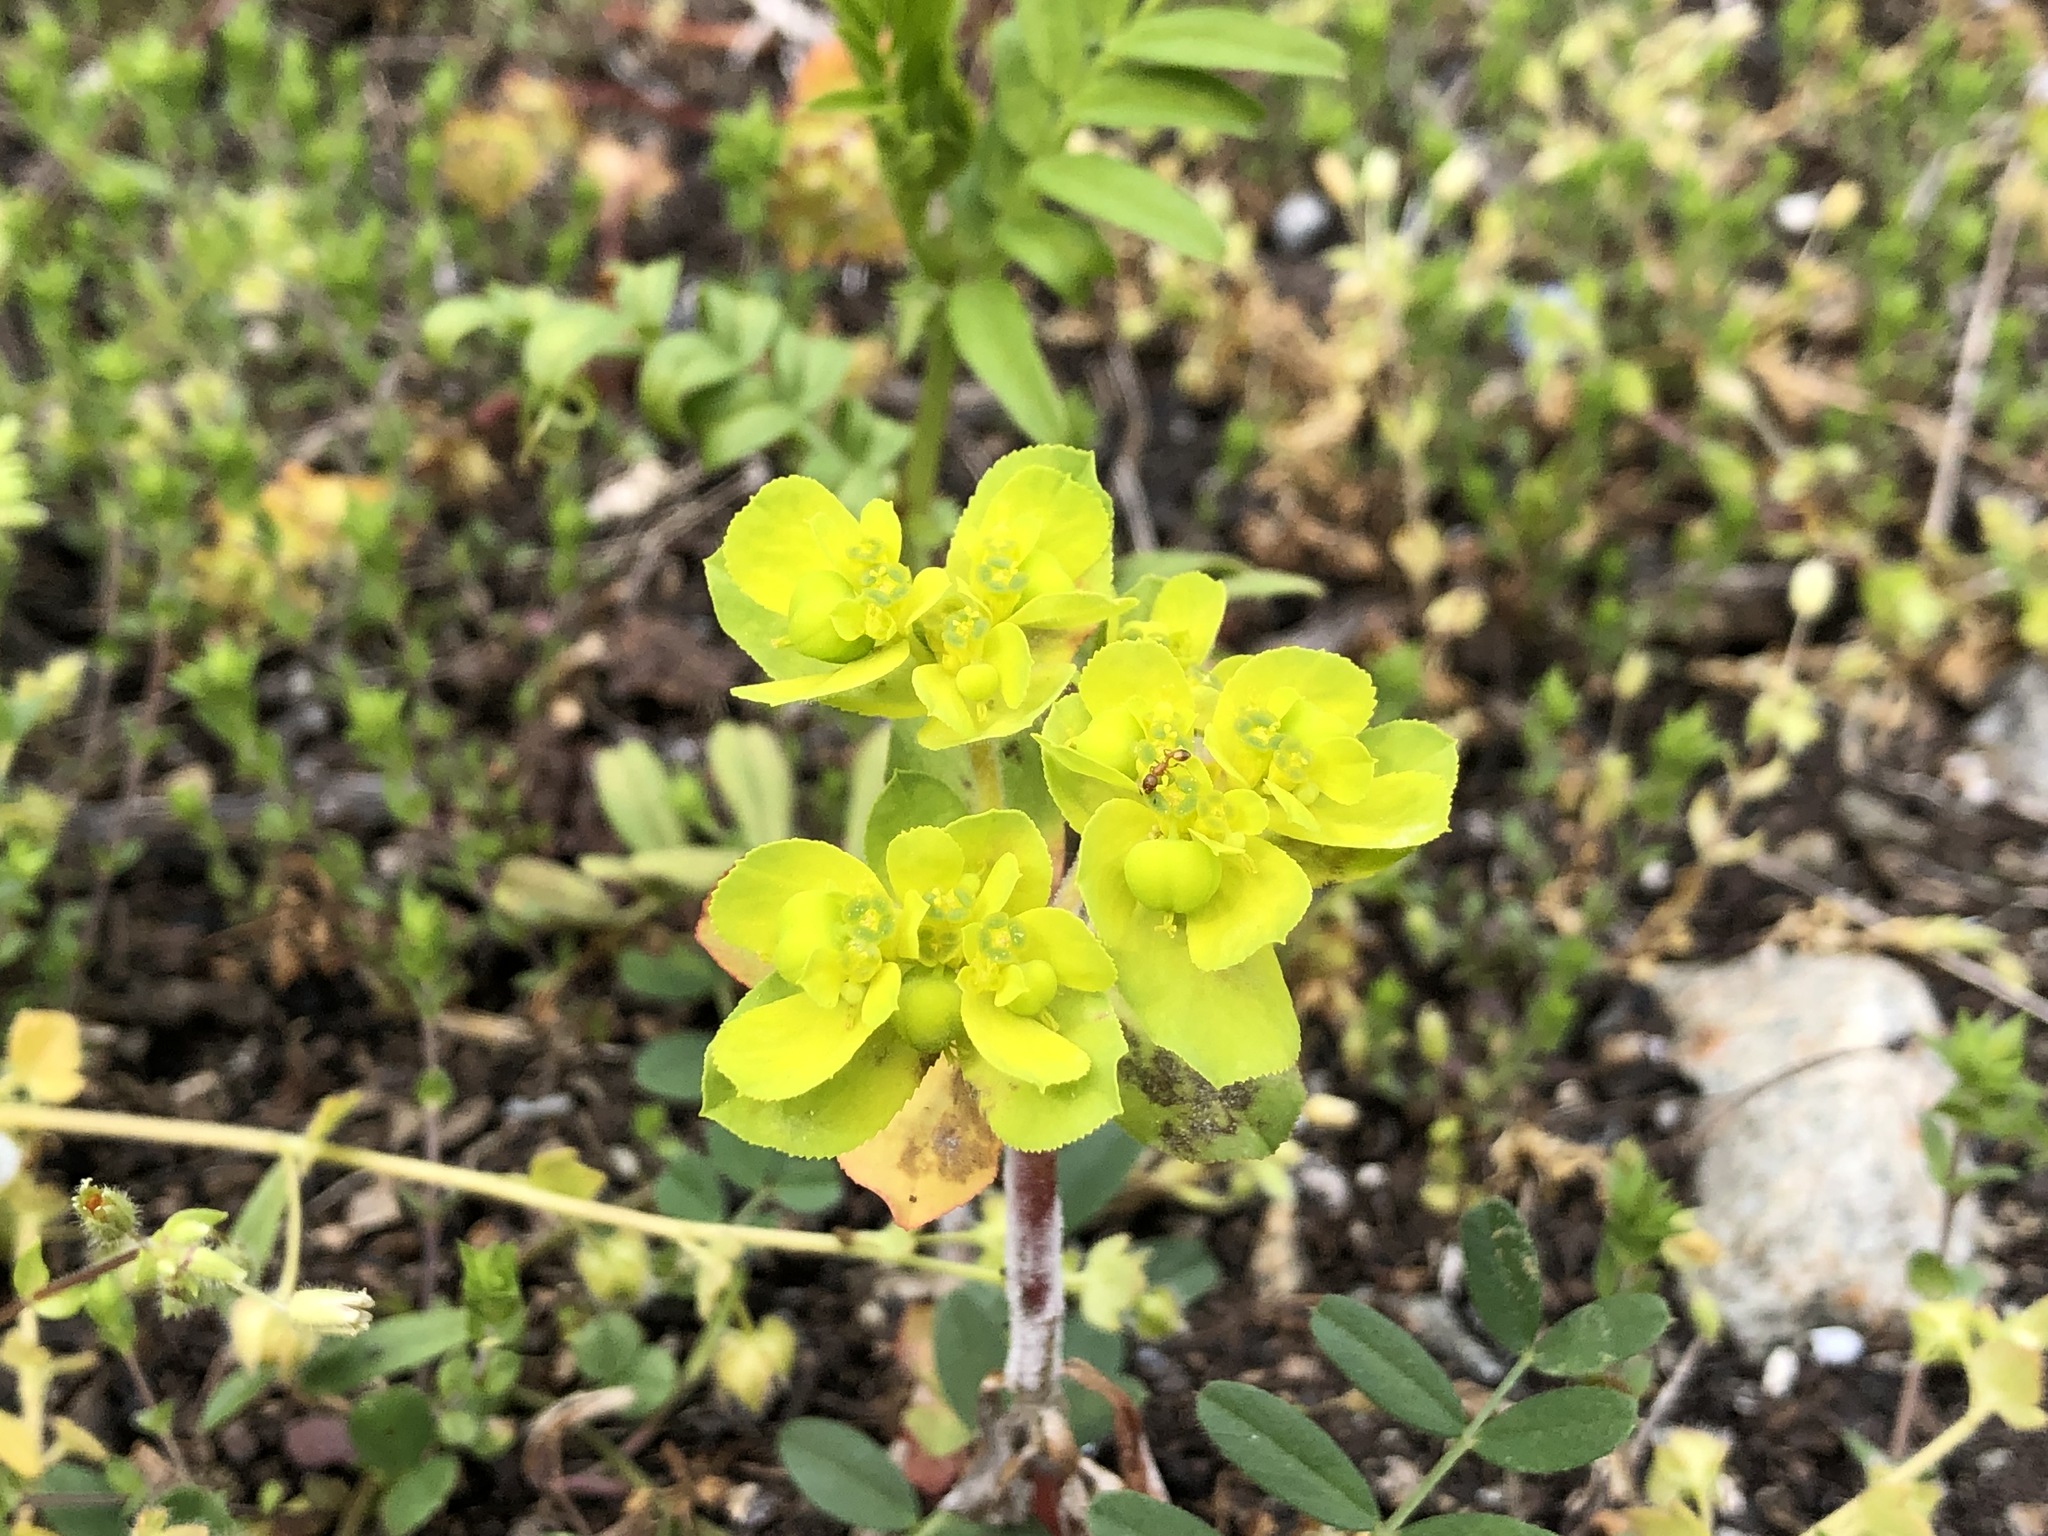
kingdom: Plantae
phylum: Tracheophyta
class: Magnoliopsida
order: Malpighiales
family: Euphorbiaceae
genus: Euphorbia
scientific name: Euphorbia helioscopia
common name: Sun spurge
